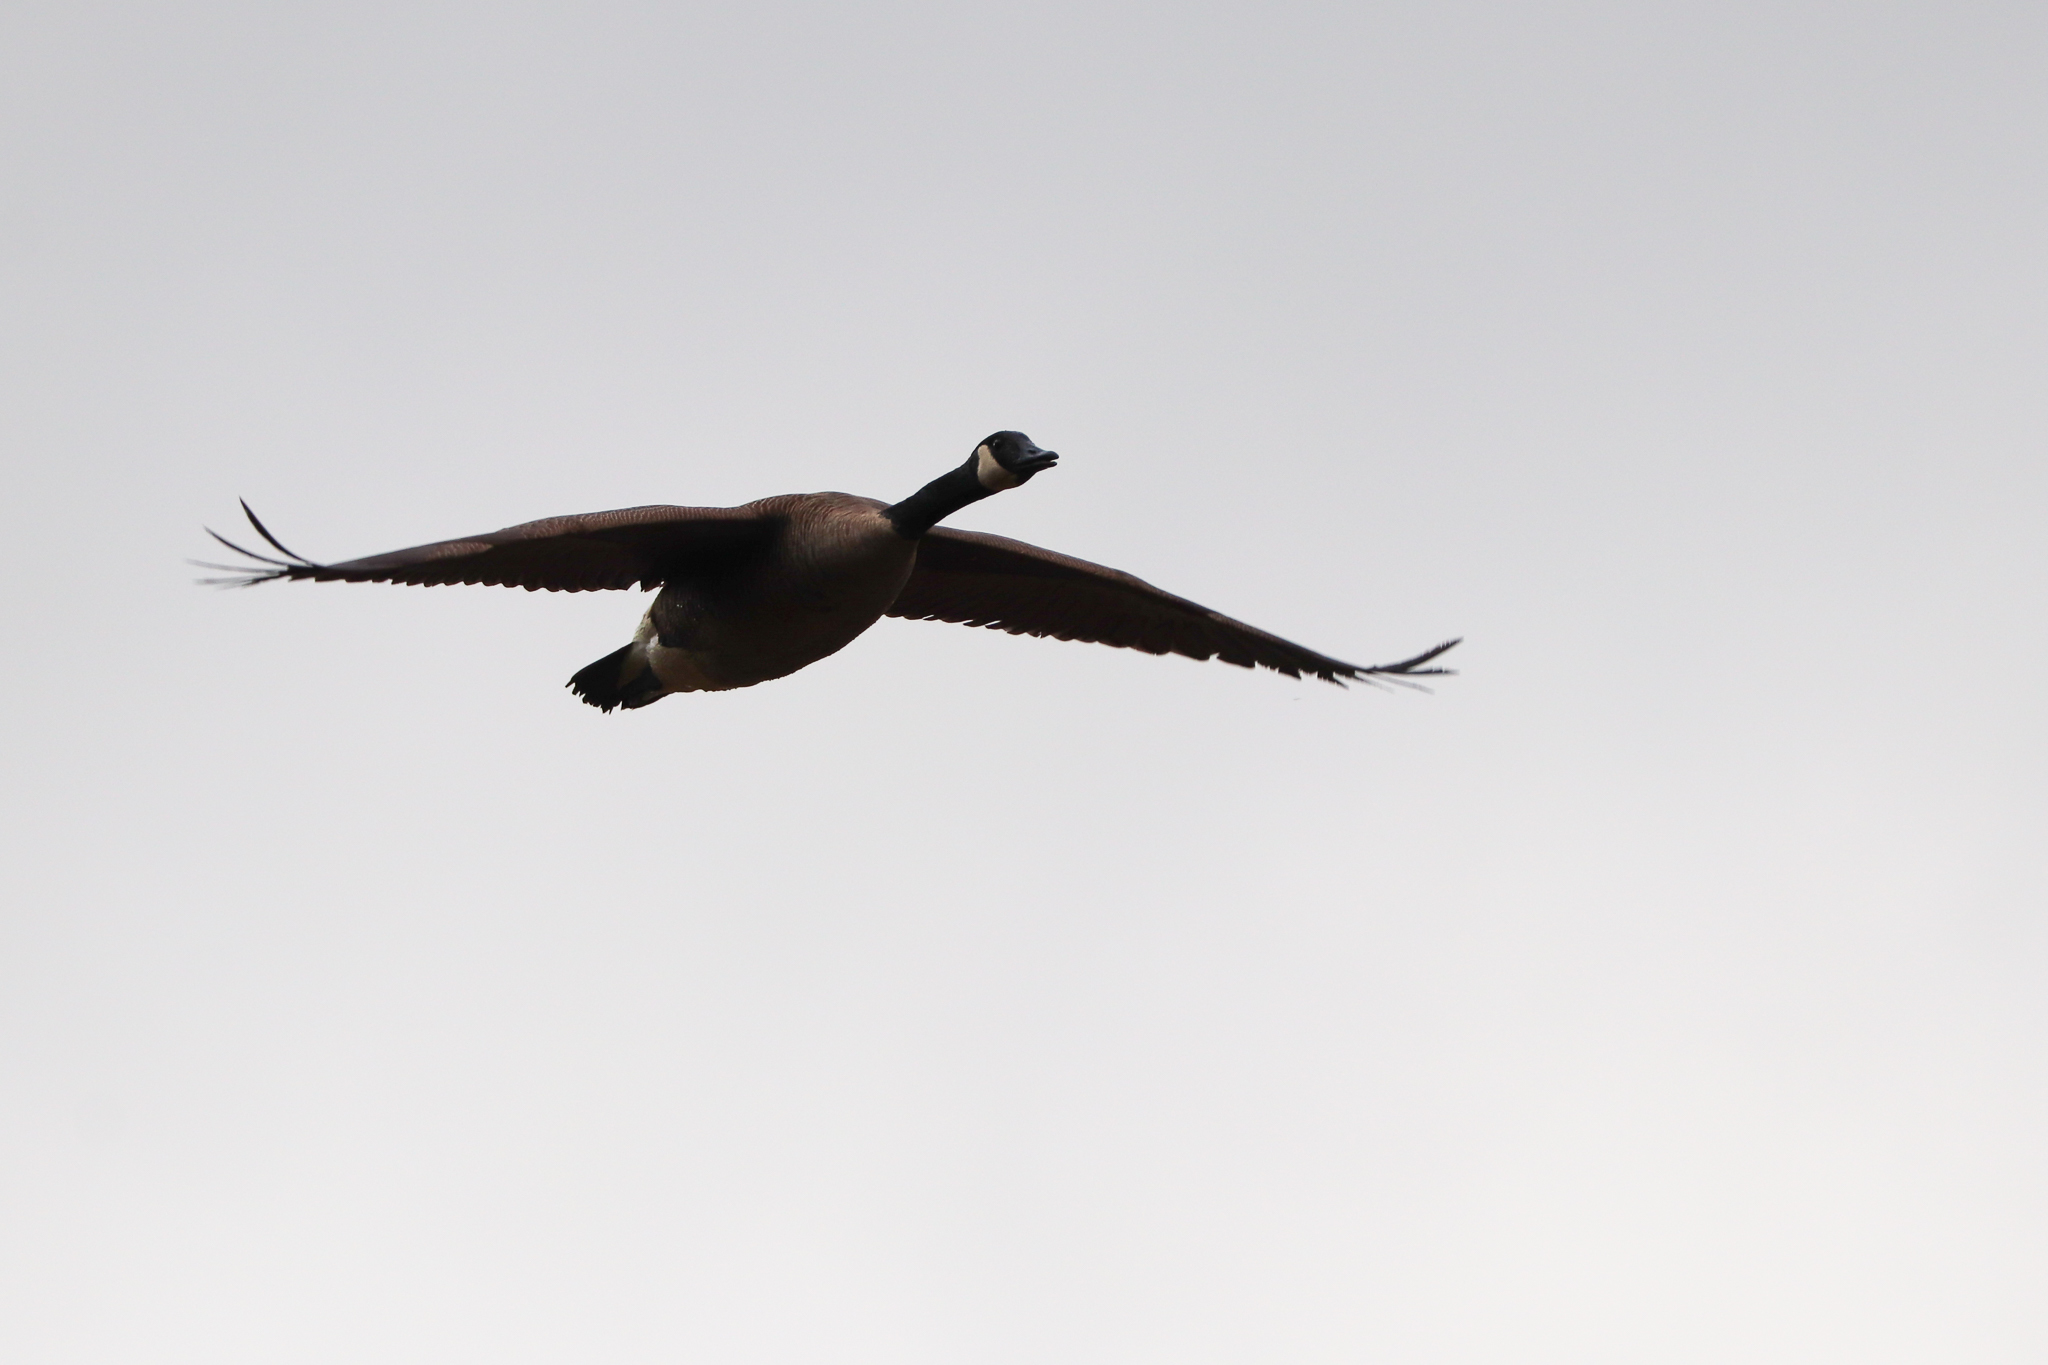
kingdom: Animalia
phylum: Chordata
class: Aves
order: Anseriformes
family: Anatidae
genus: Branta
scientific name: Branta canadensis
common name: Canada goose
